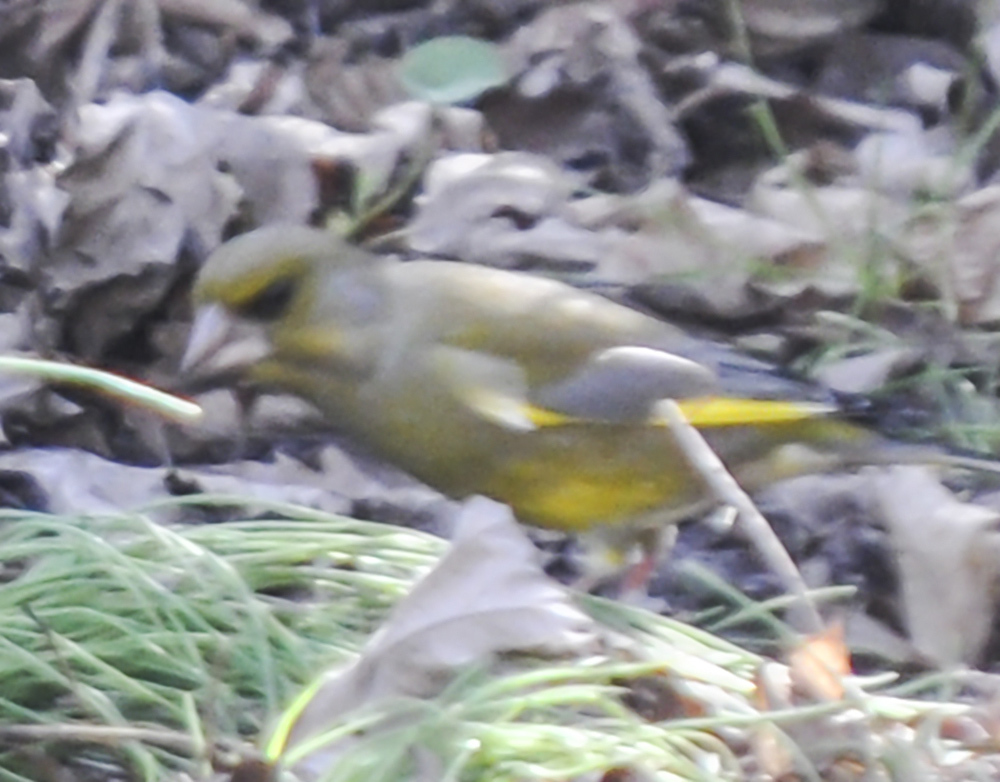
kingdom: Plantae
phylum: Tracheophyta
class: Liliopsida
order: Poales
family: Poaceae
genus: Chloris
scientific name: Chloris chloris
